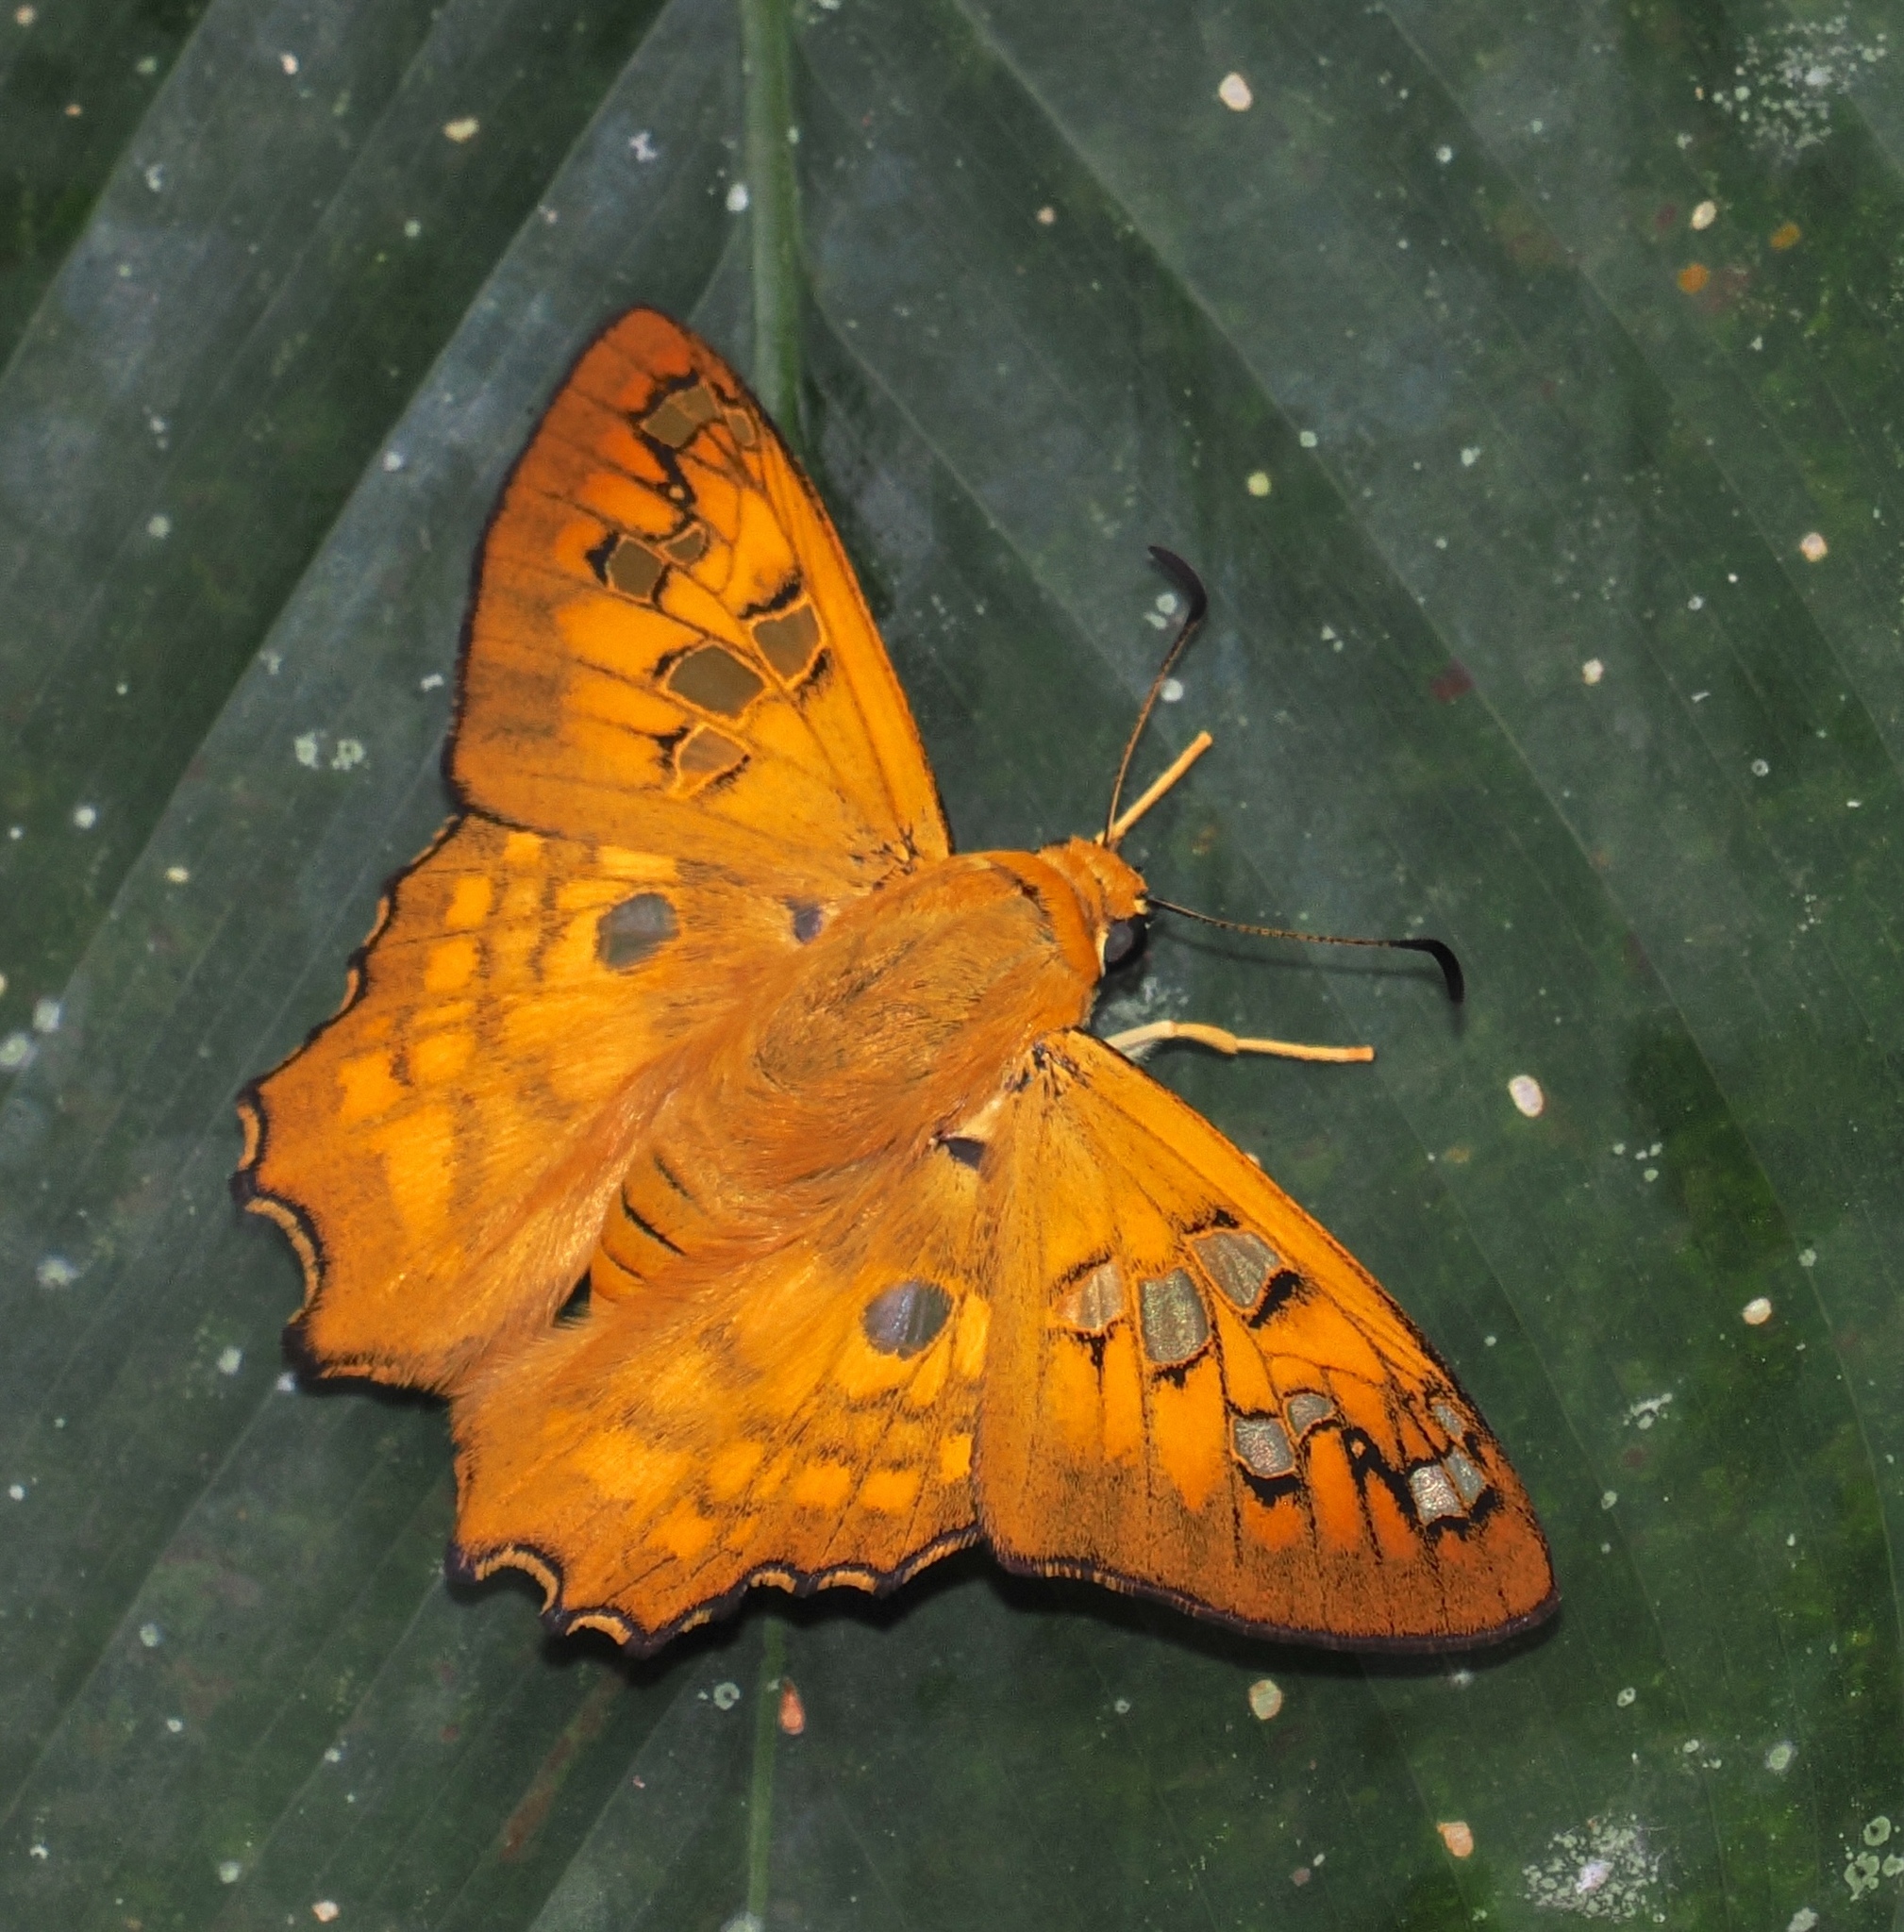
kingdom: Animalia
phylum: Arthropoda
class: Insecta
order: Lepidoptera
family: Hesperiidae
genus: Myscelus
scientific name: Myscelus amystis
